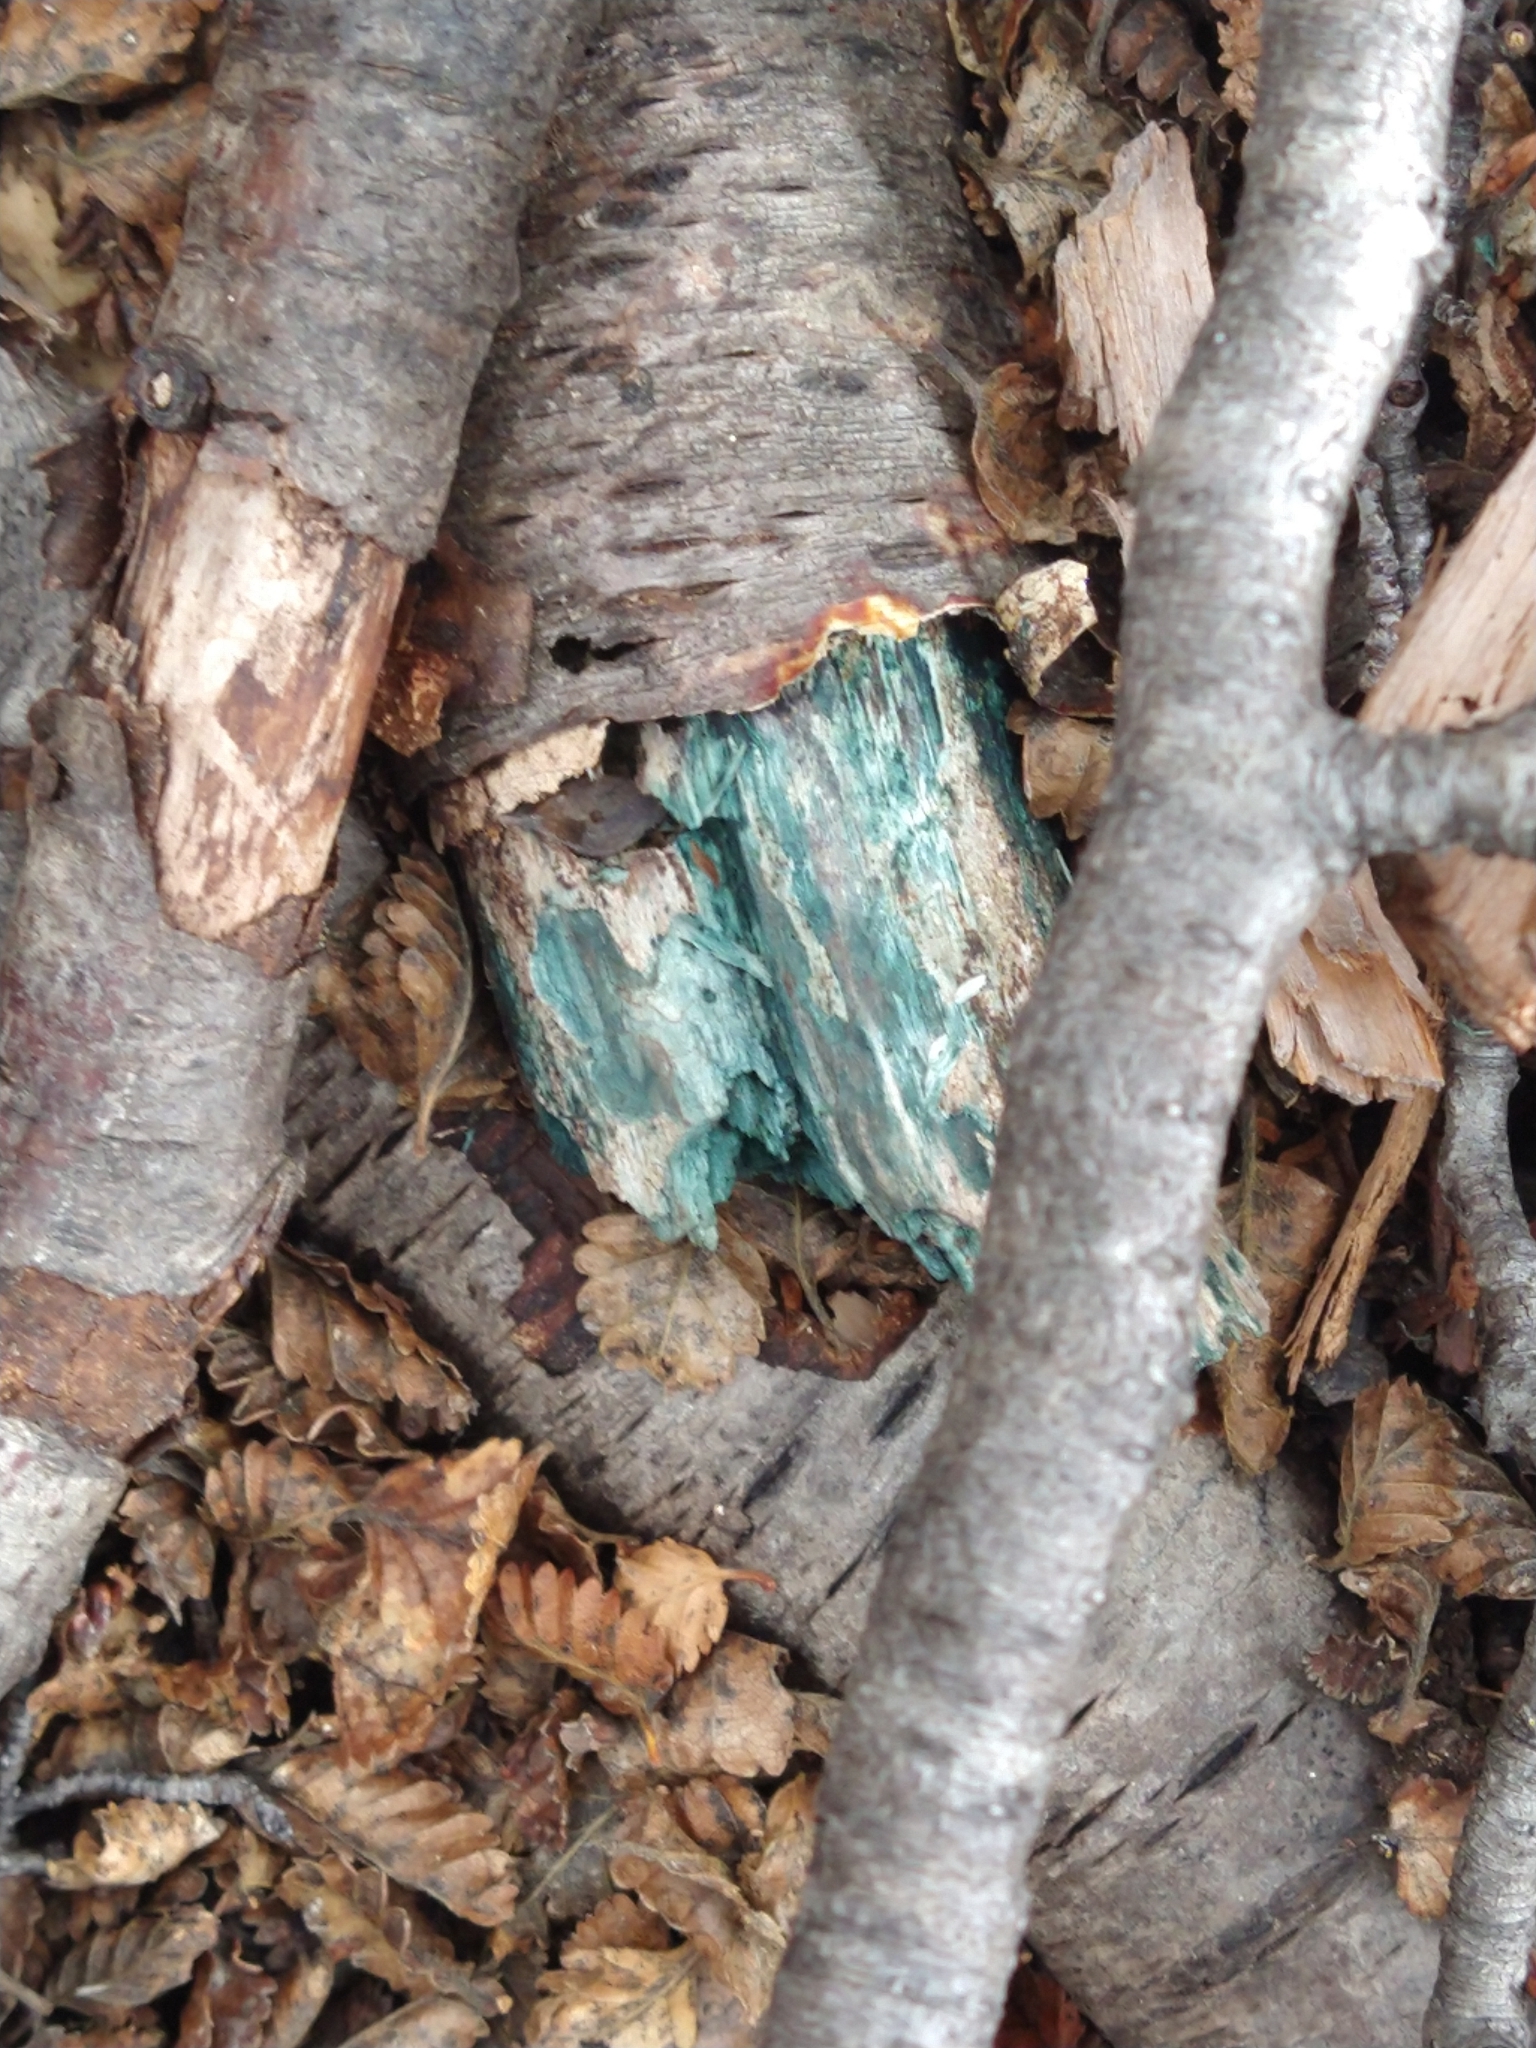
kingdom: Fungi
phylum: Ascomycota
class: Leotiomycetes
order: Helotiales
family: Chlorociboriaceae
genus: Chlorociboria
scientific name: Chlorociboria aeruginascens
